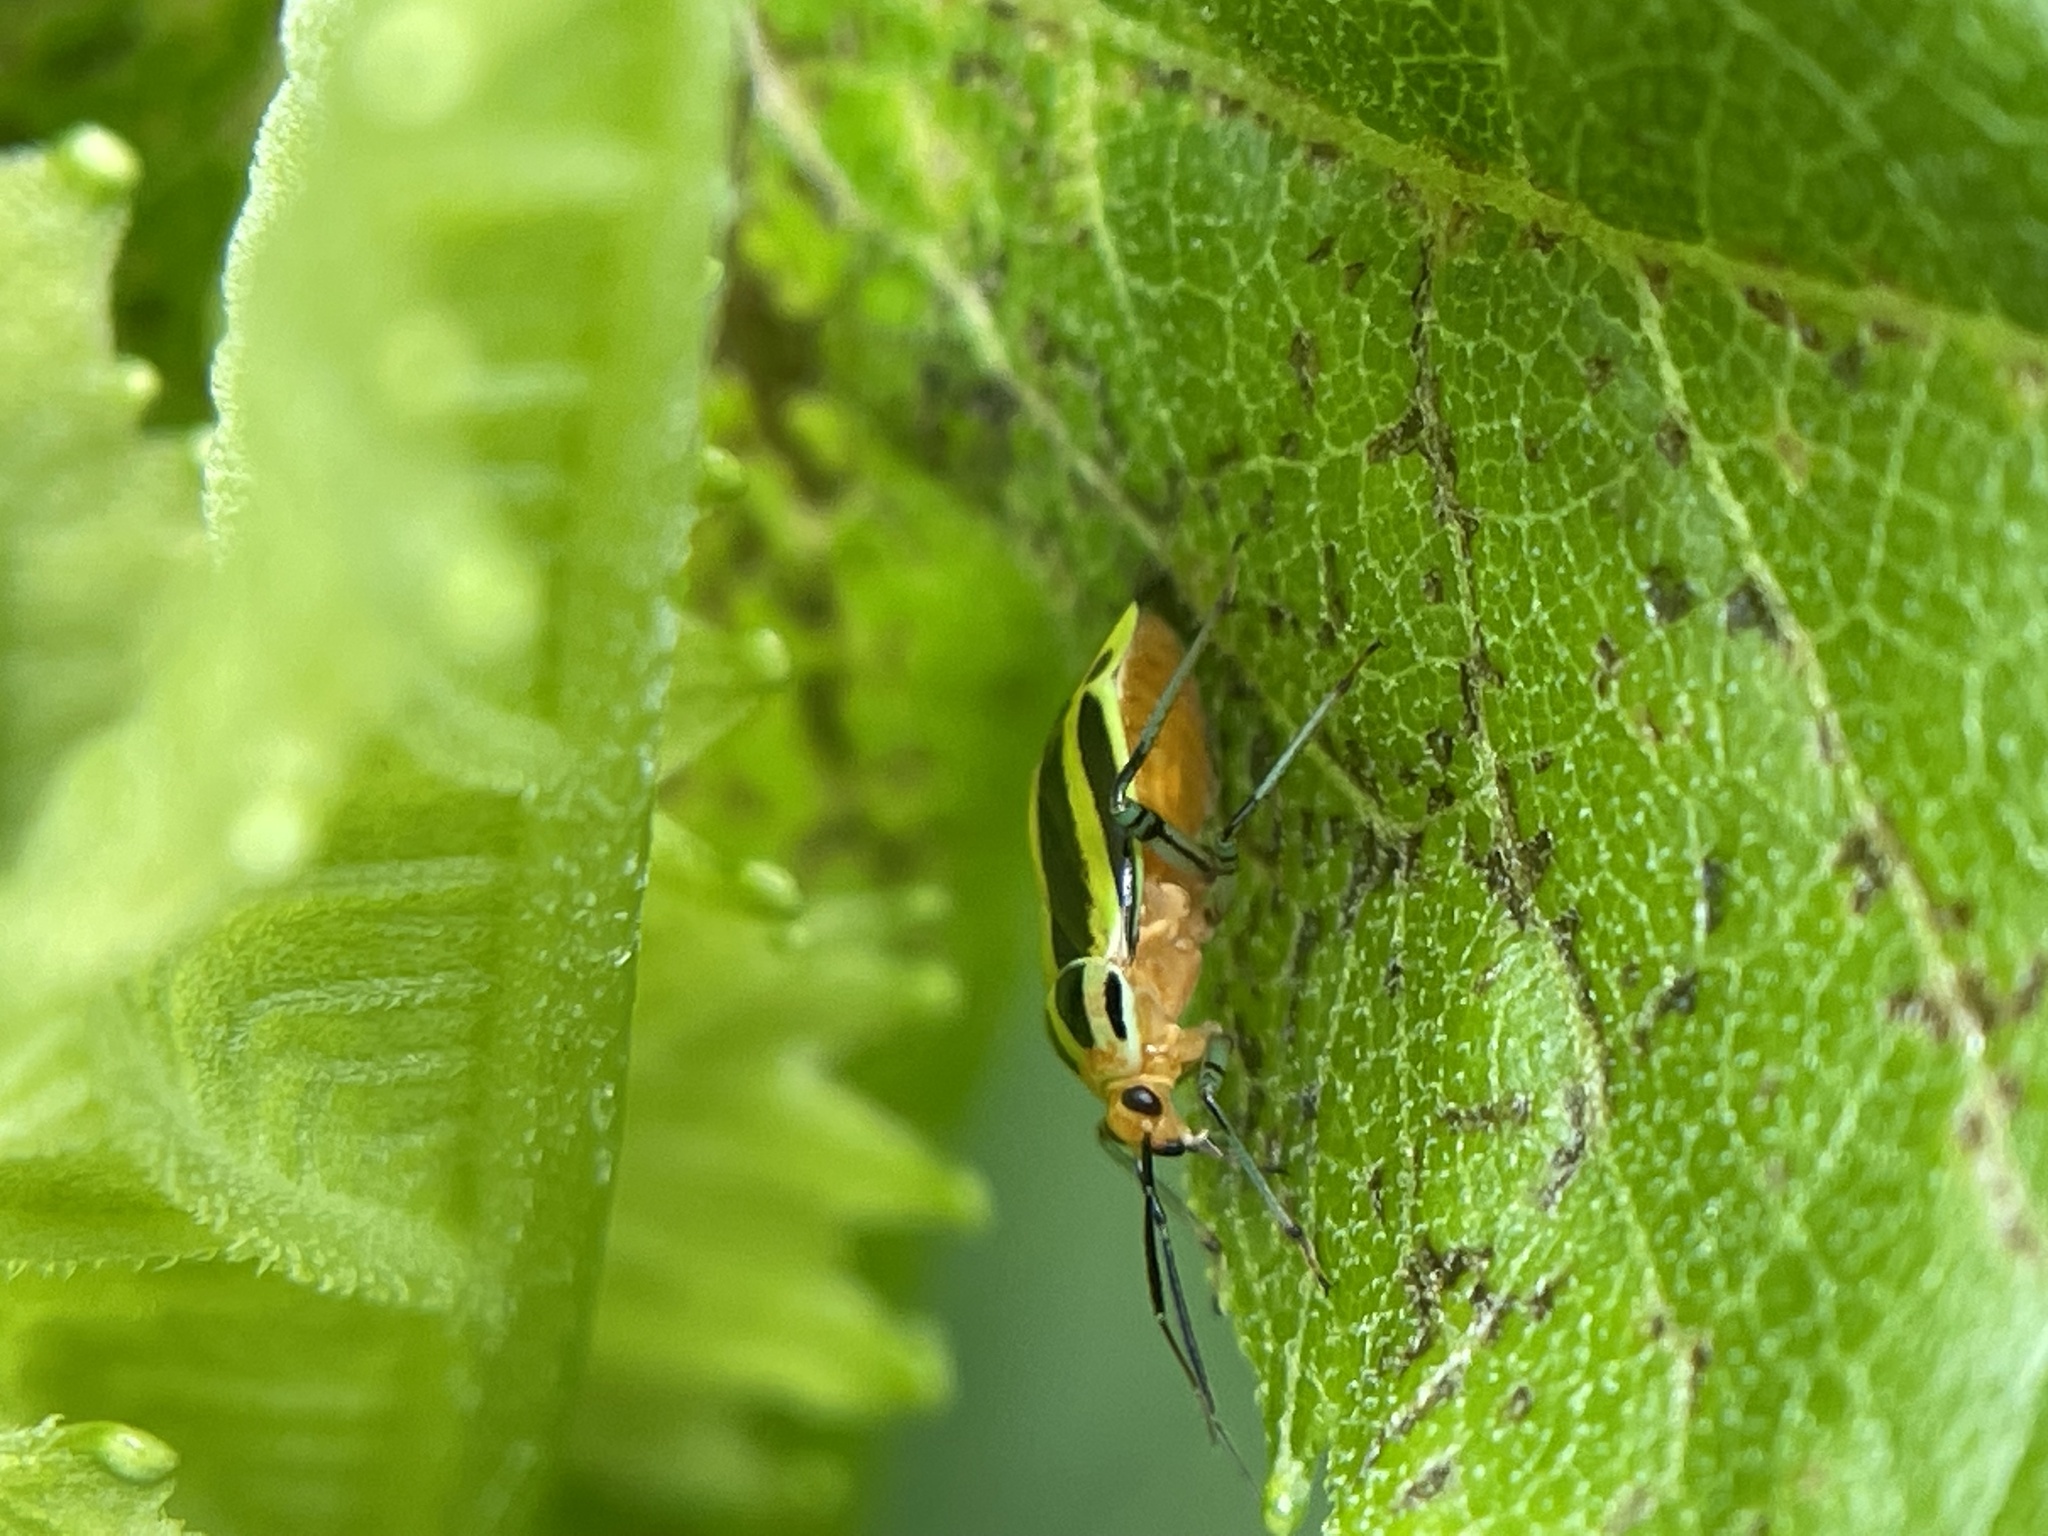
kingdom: Animalia
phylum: Arthropoda
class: Insecta
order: Hemiptera
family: Miridae
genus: Poecilocapsus
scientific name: Poecilocapsus lineatus
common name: Four-lined plant bug
